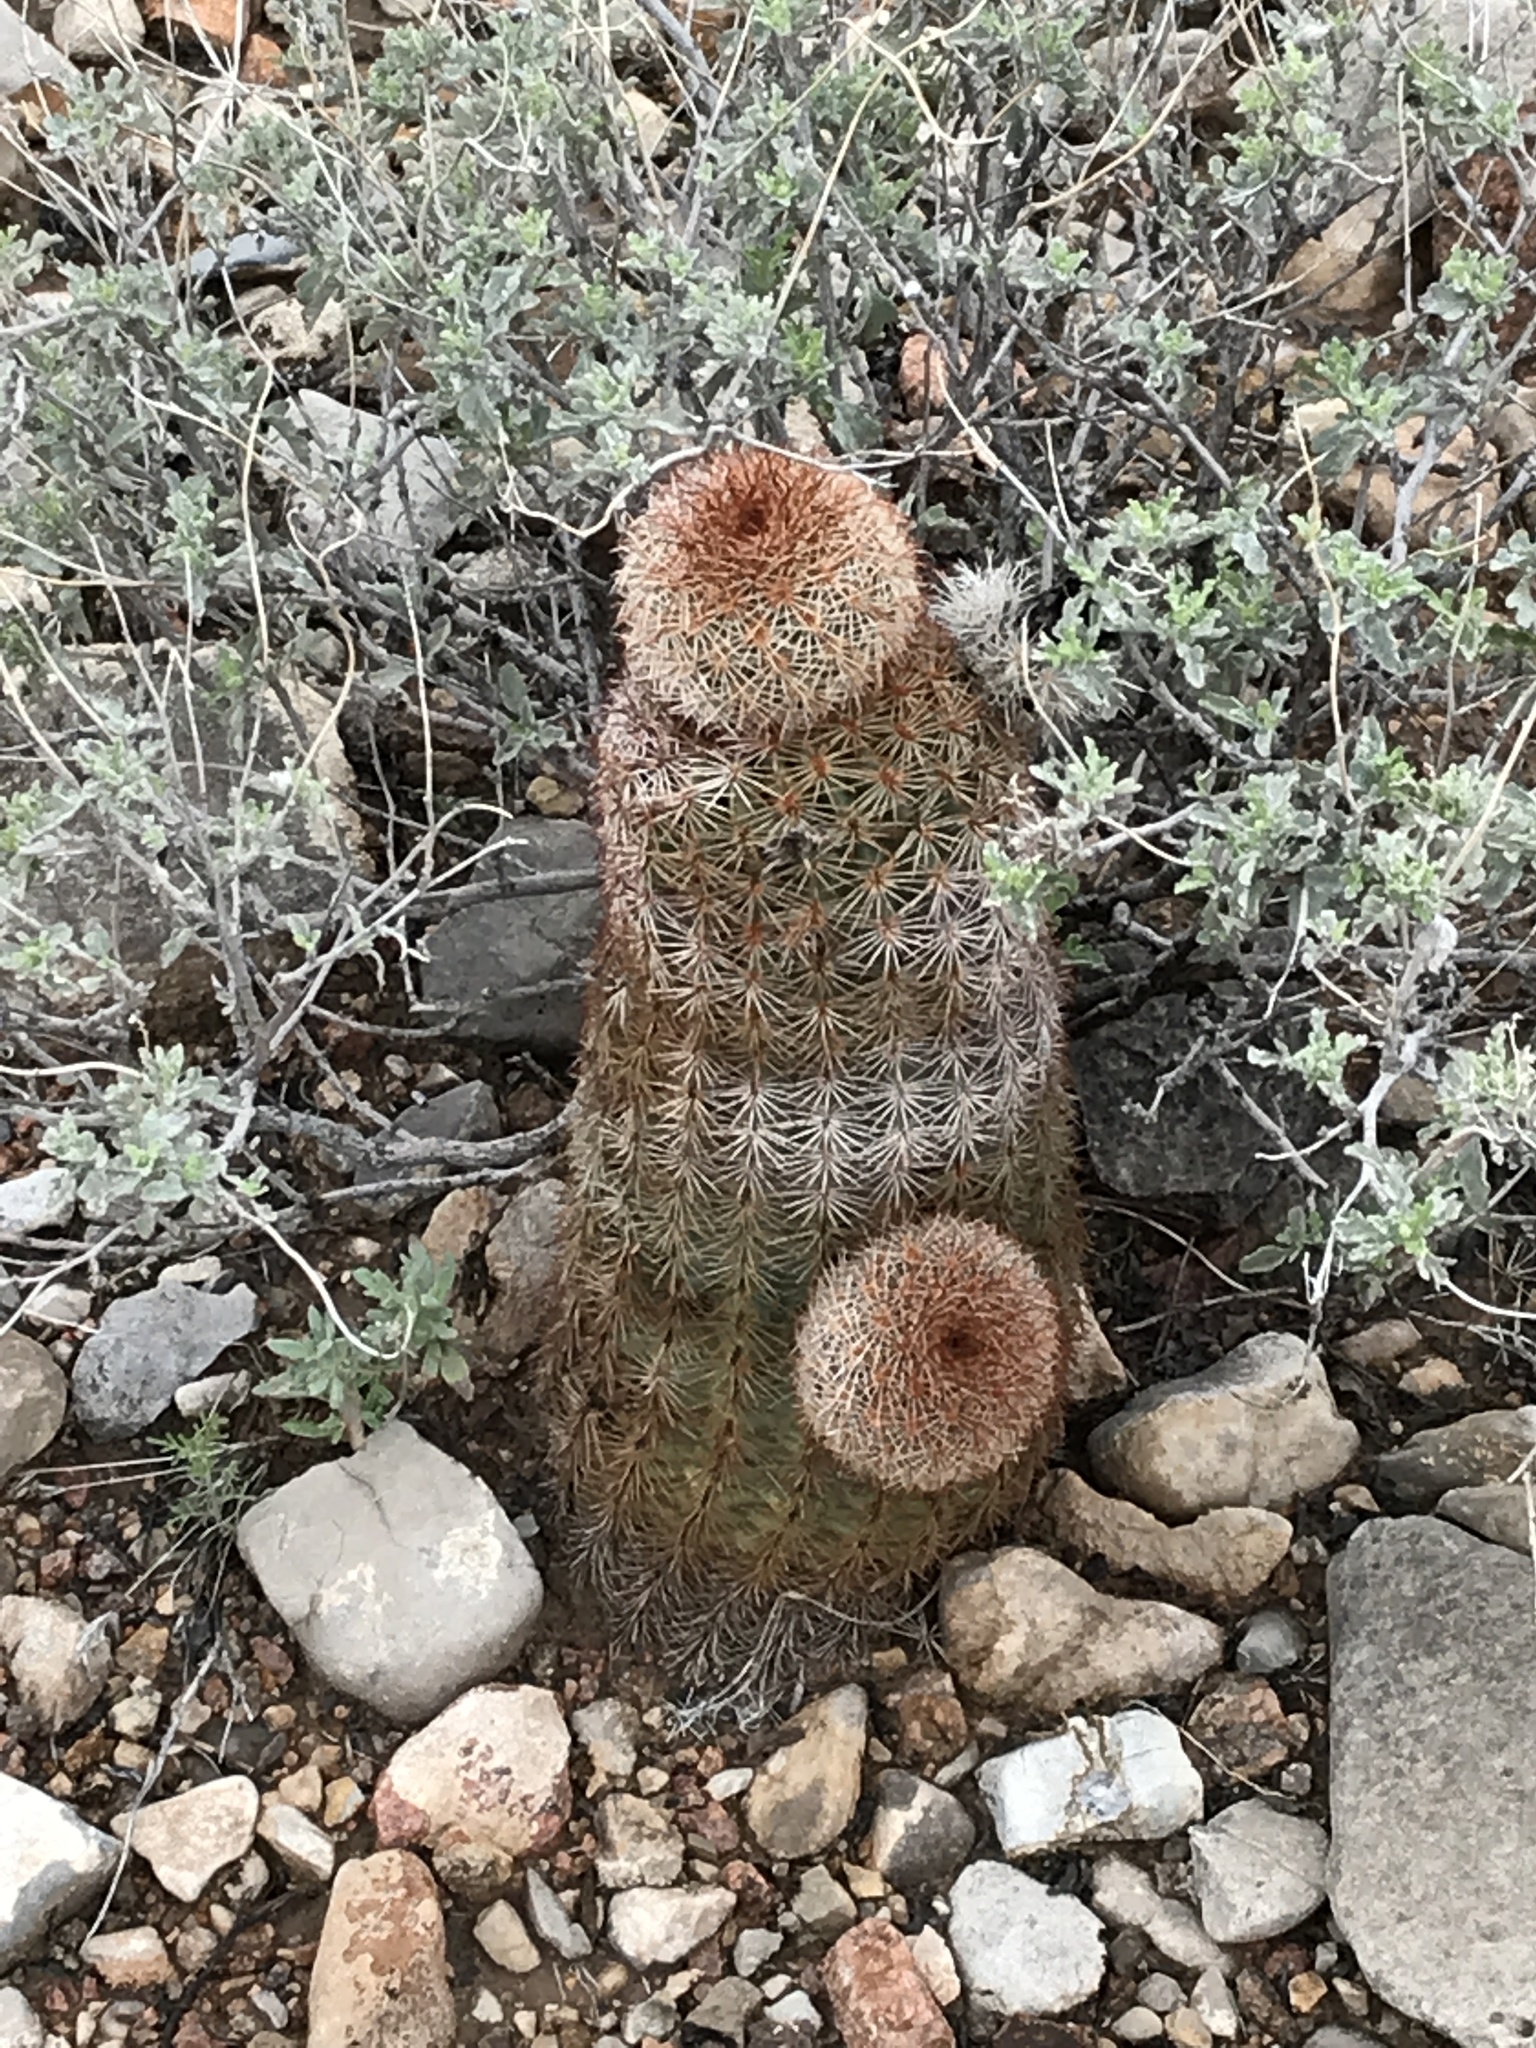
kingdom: Plantae
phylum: Tracheophyta
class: Magnoliopsida
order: Caryophyllales
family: Cactaceae
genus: Echinocereus
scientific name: Echinocereus dasyacanthus
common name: Spiny hedgehog cactus
